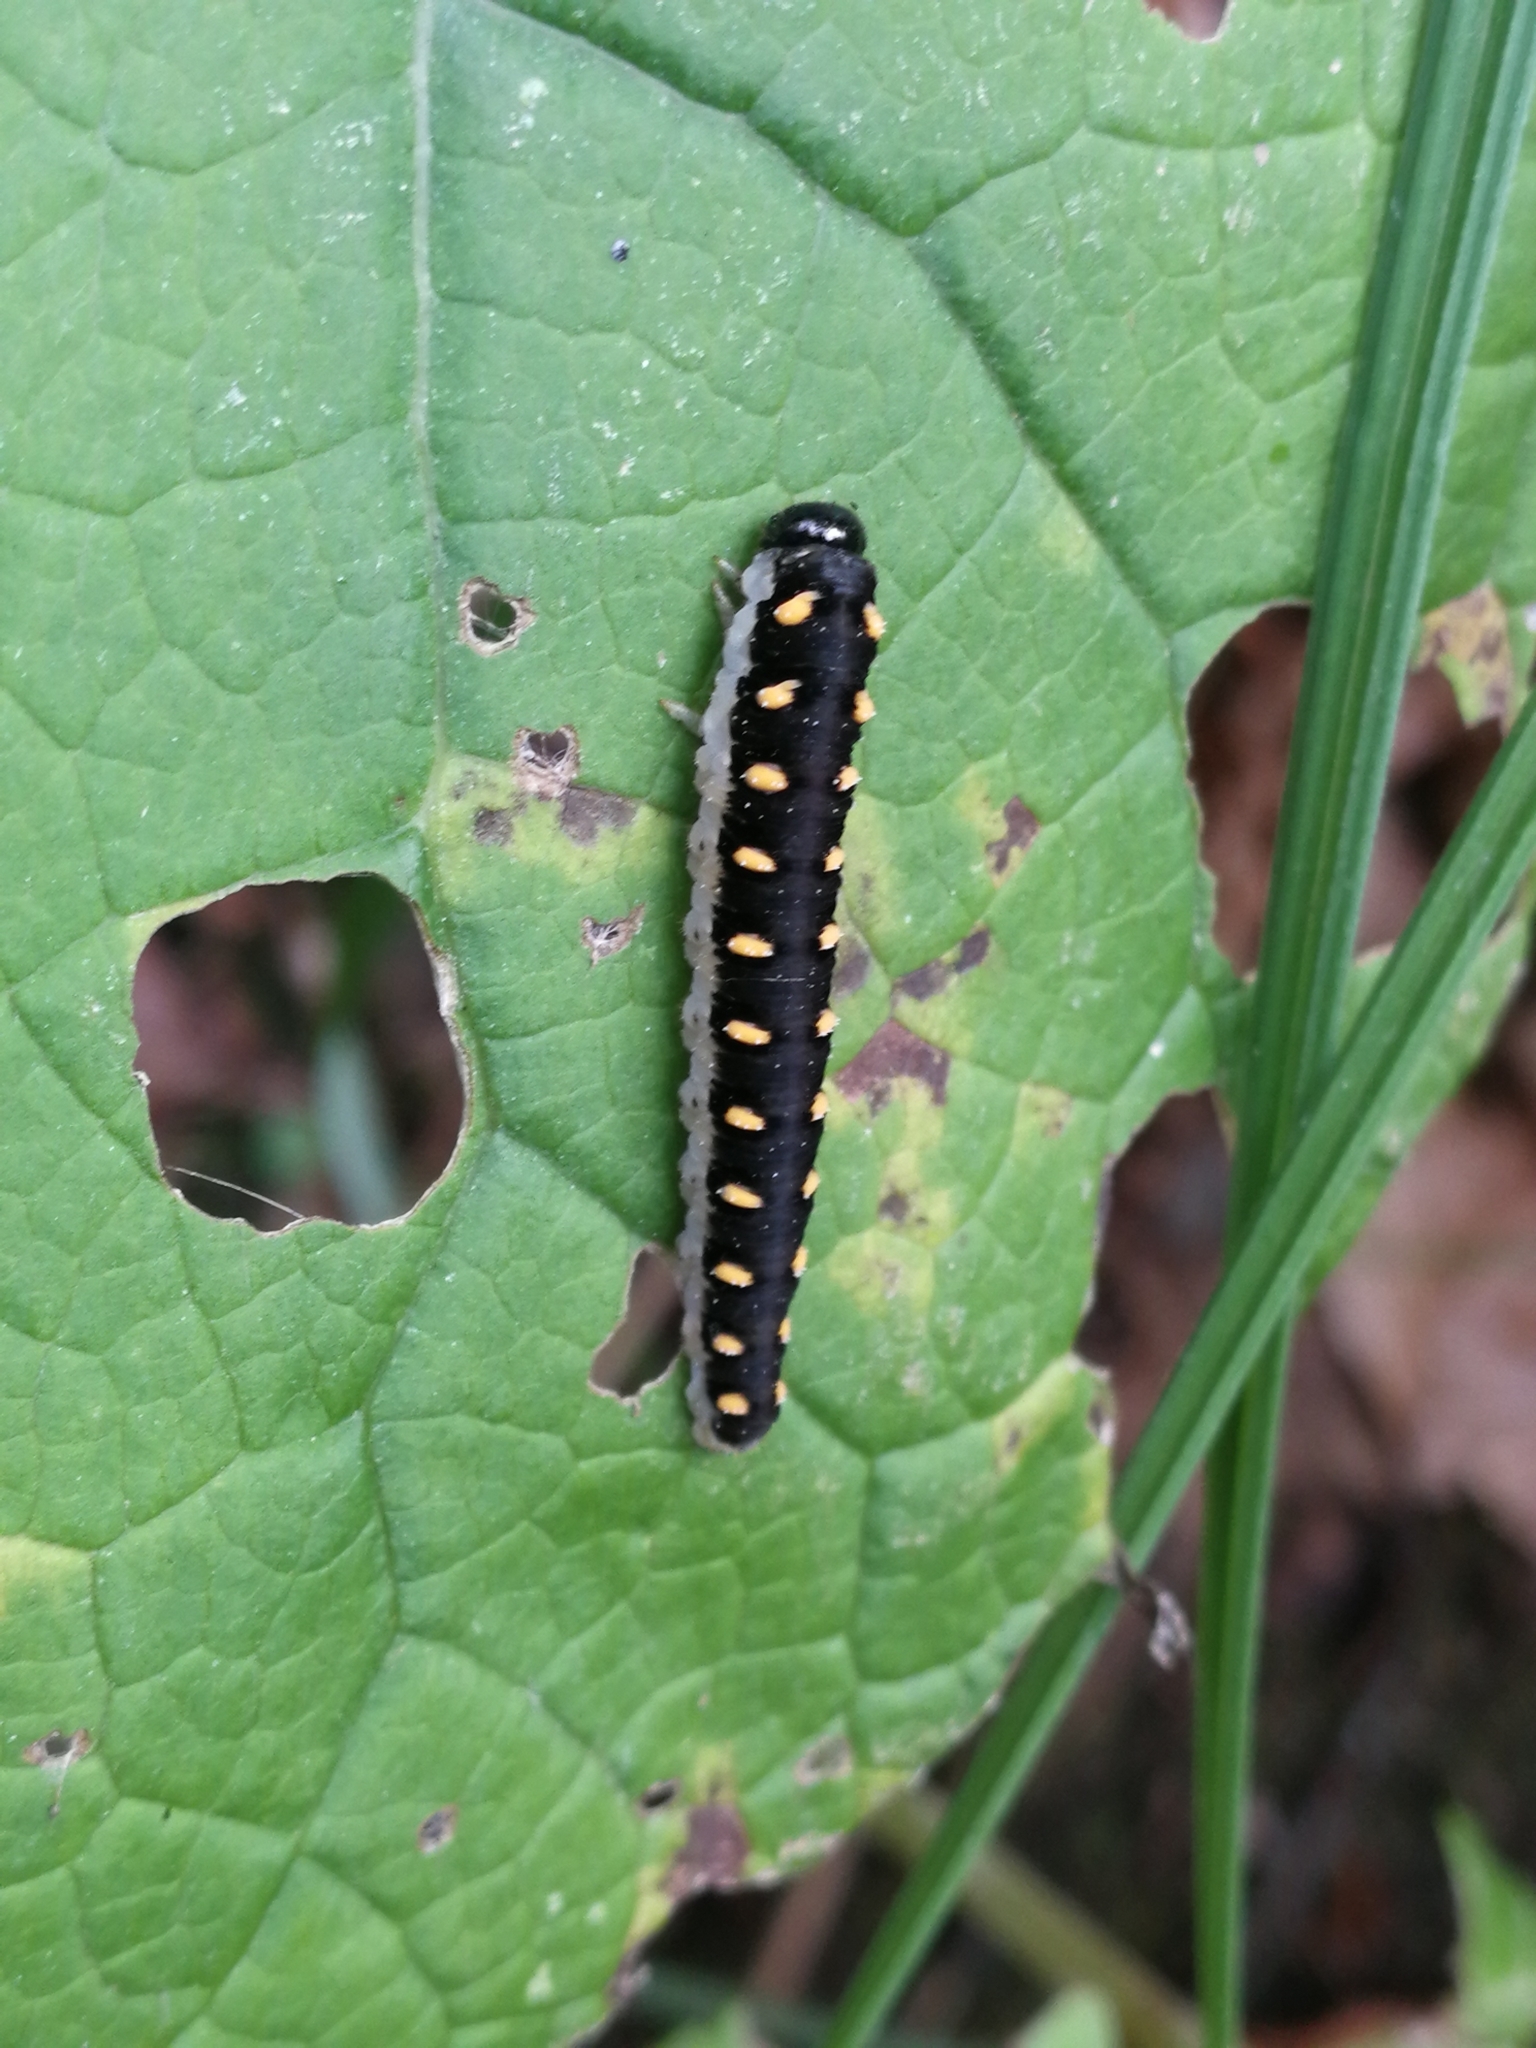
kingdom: Animalia
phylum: Arthropoda
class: Insecta
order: Hymenoptera
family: Tenthredinidae
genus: Tenthredo
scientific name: Tenthredo mandibularis
